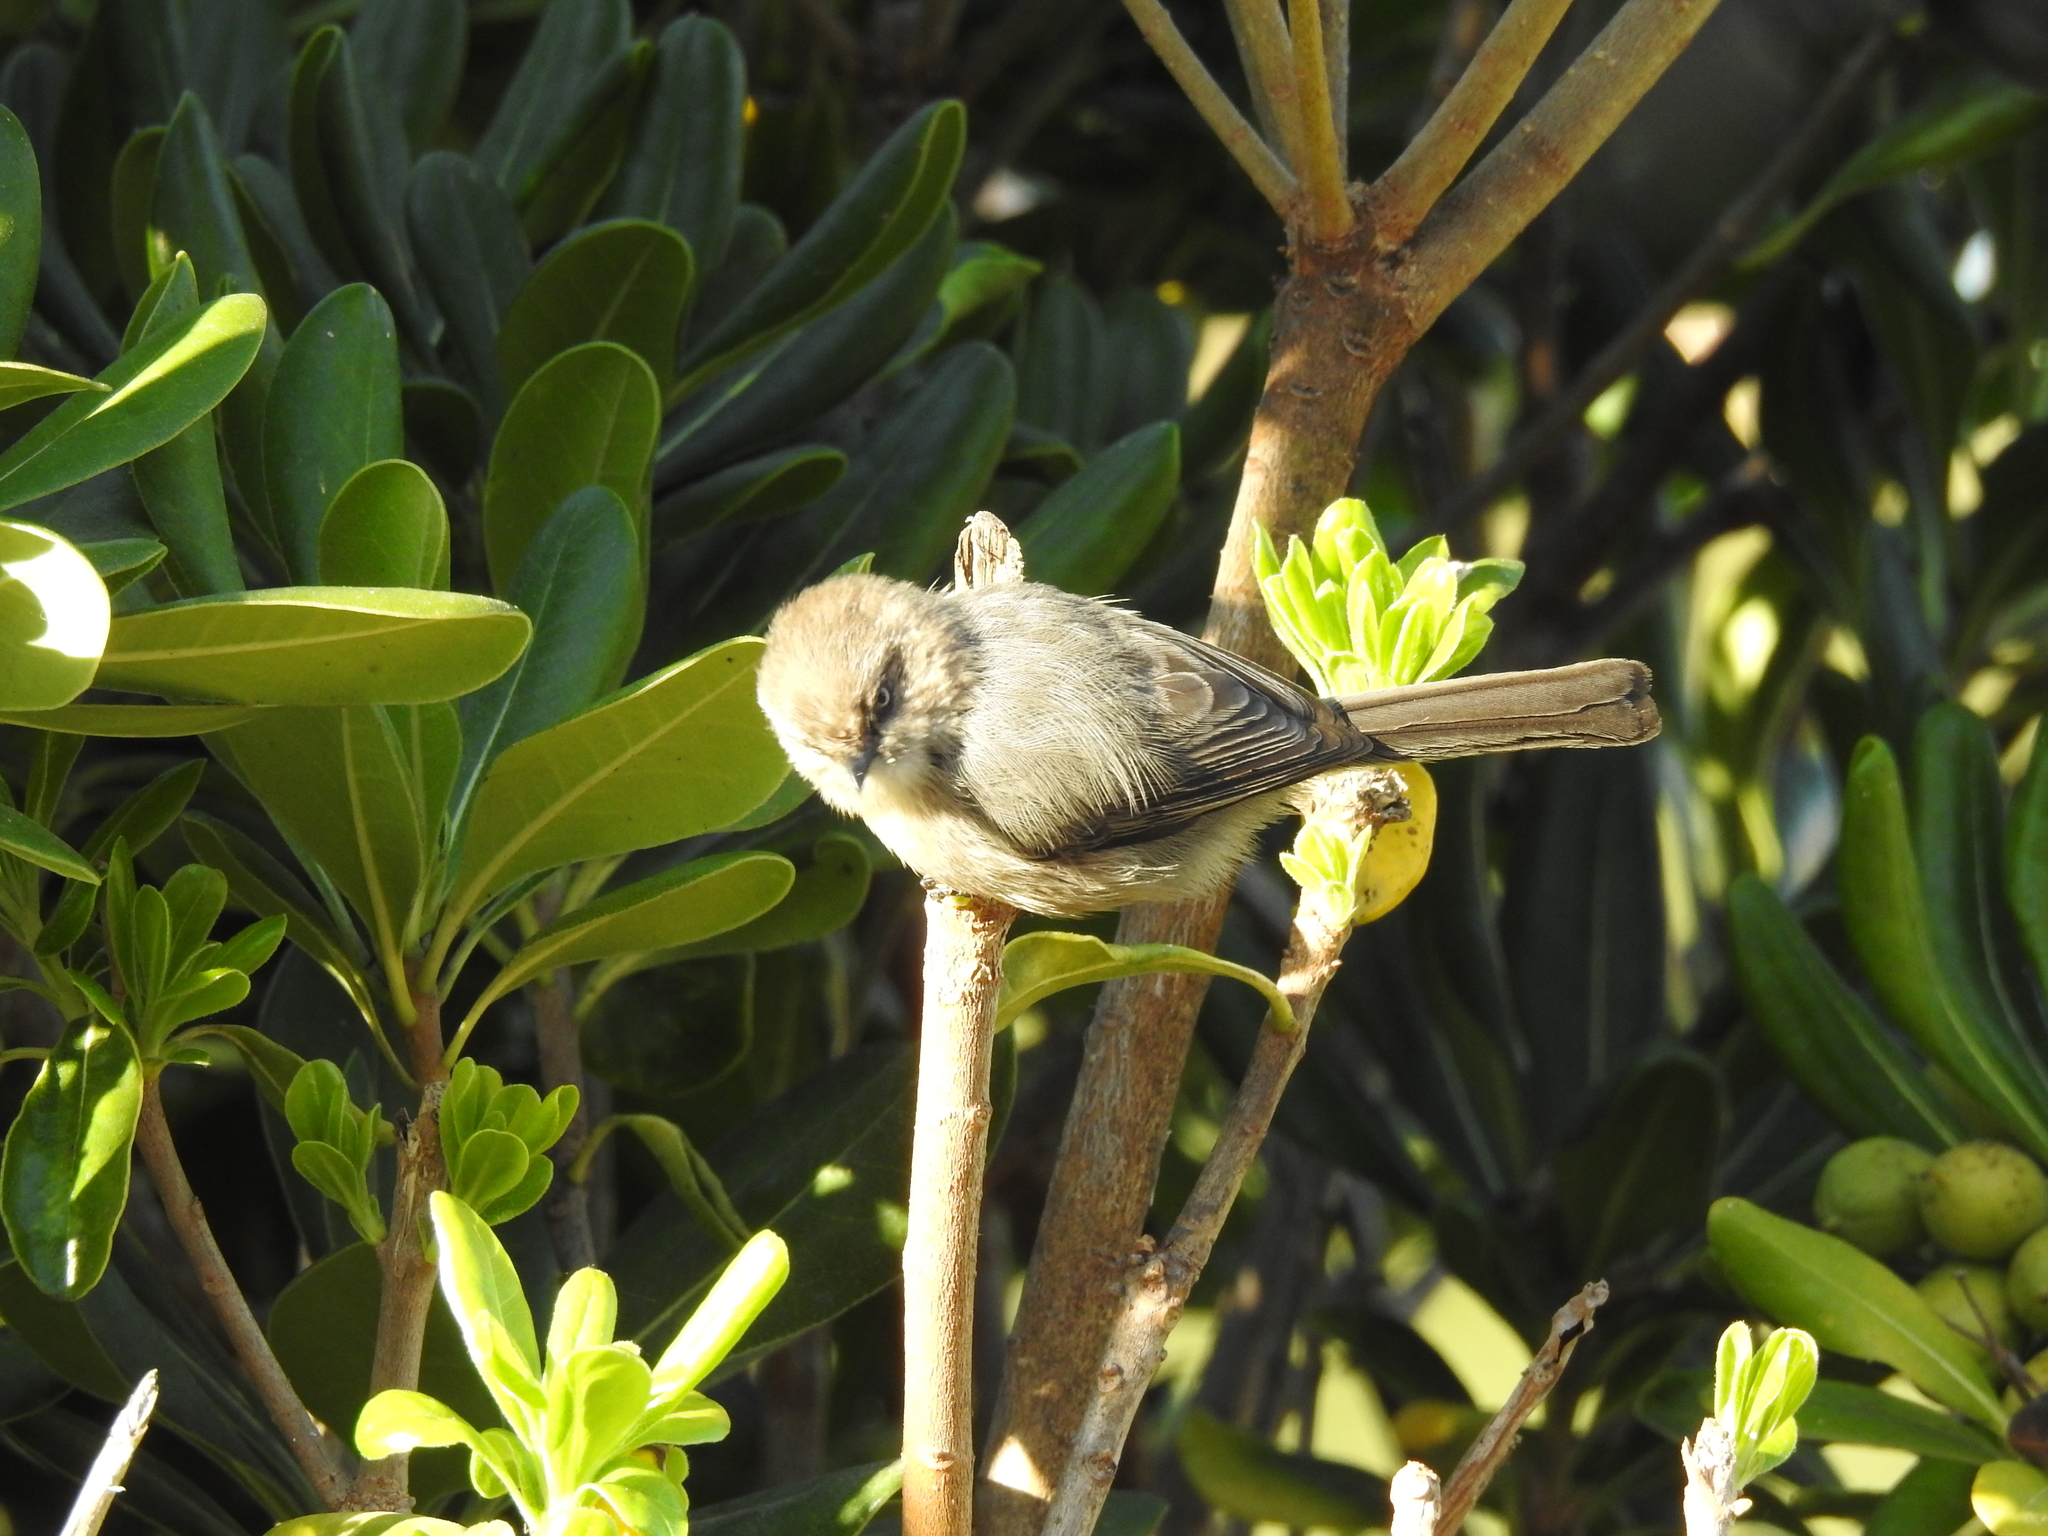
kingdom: Animalia
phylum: Chordata
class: Aves
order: Passeriformes
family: Aegithalidae
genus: Psaltriparus
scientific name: Psaltriparus minimus
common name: American bushtit
